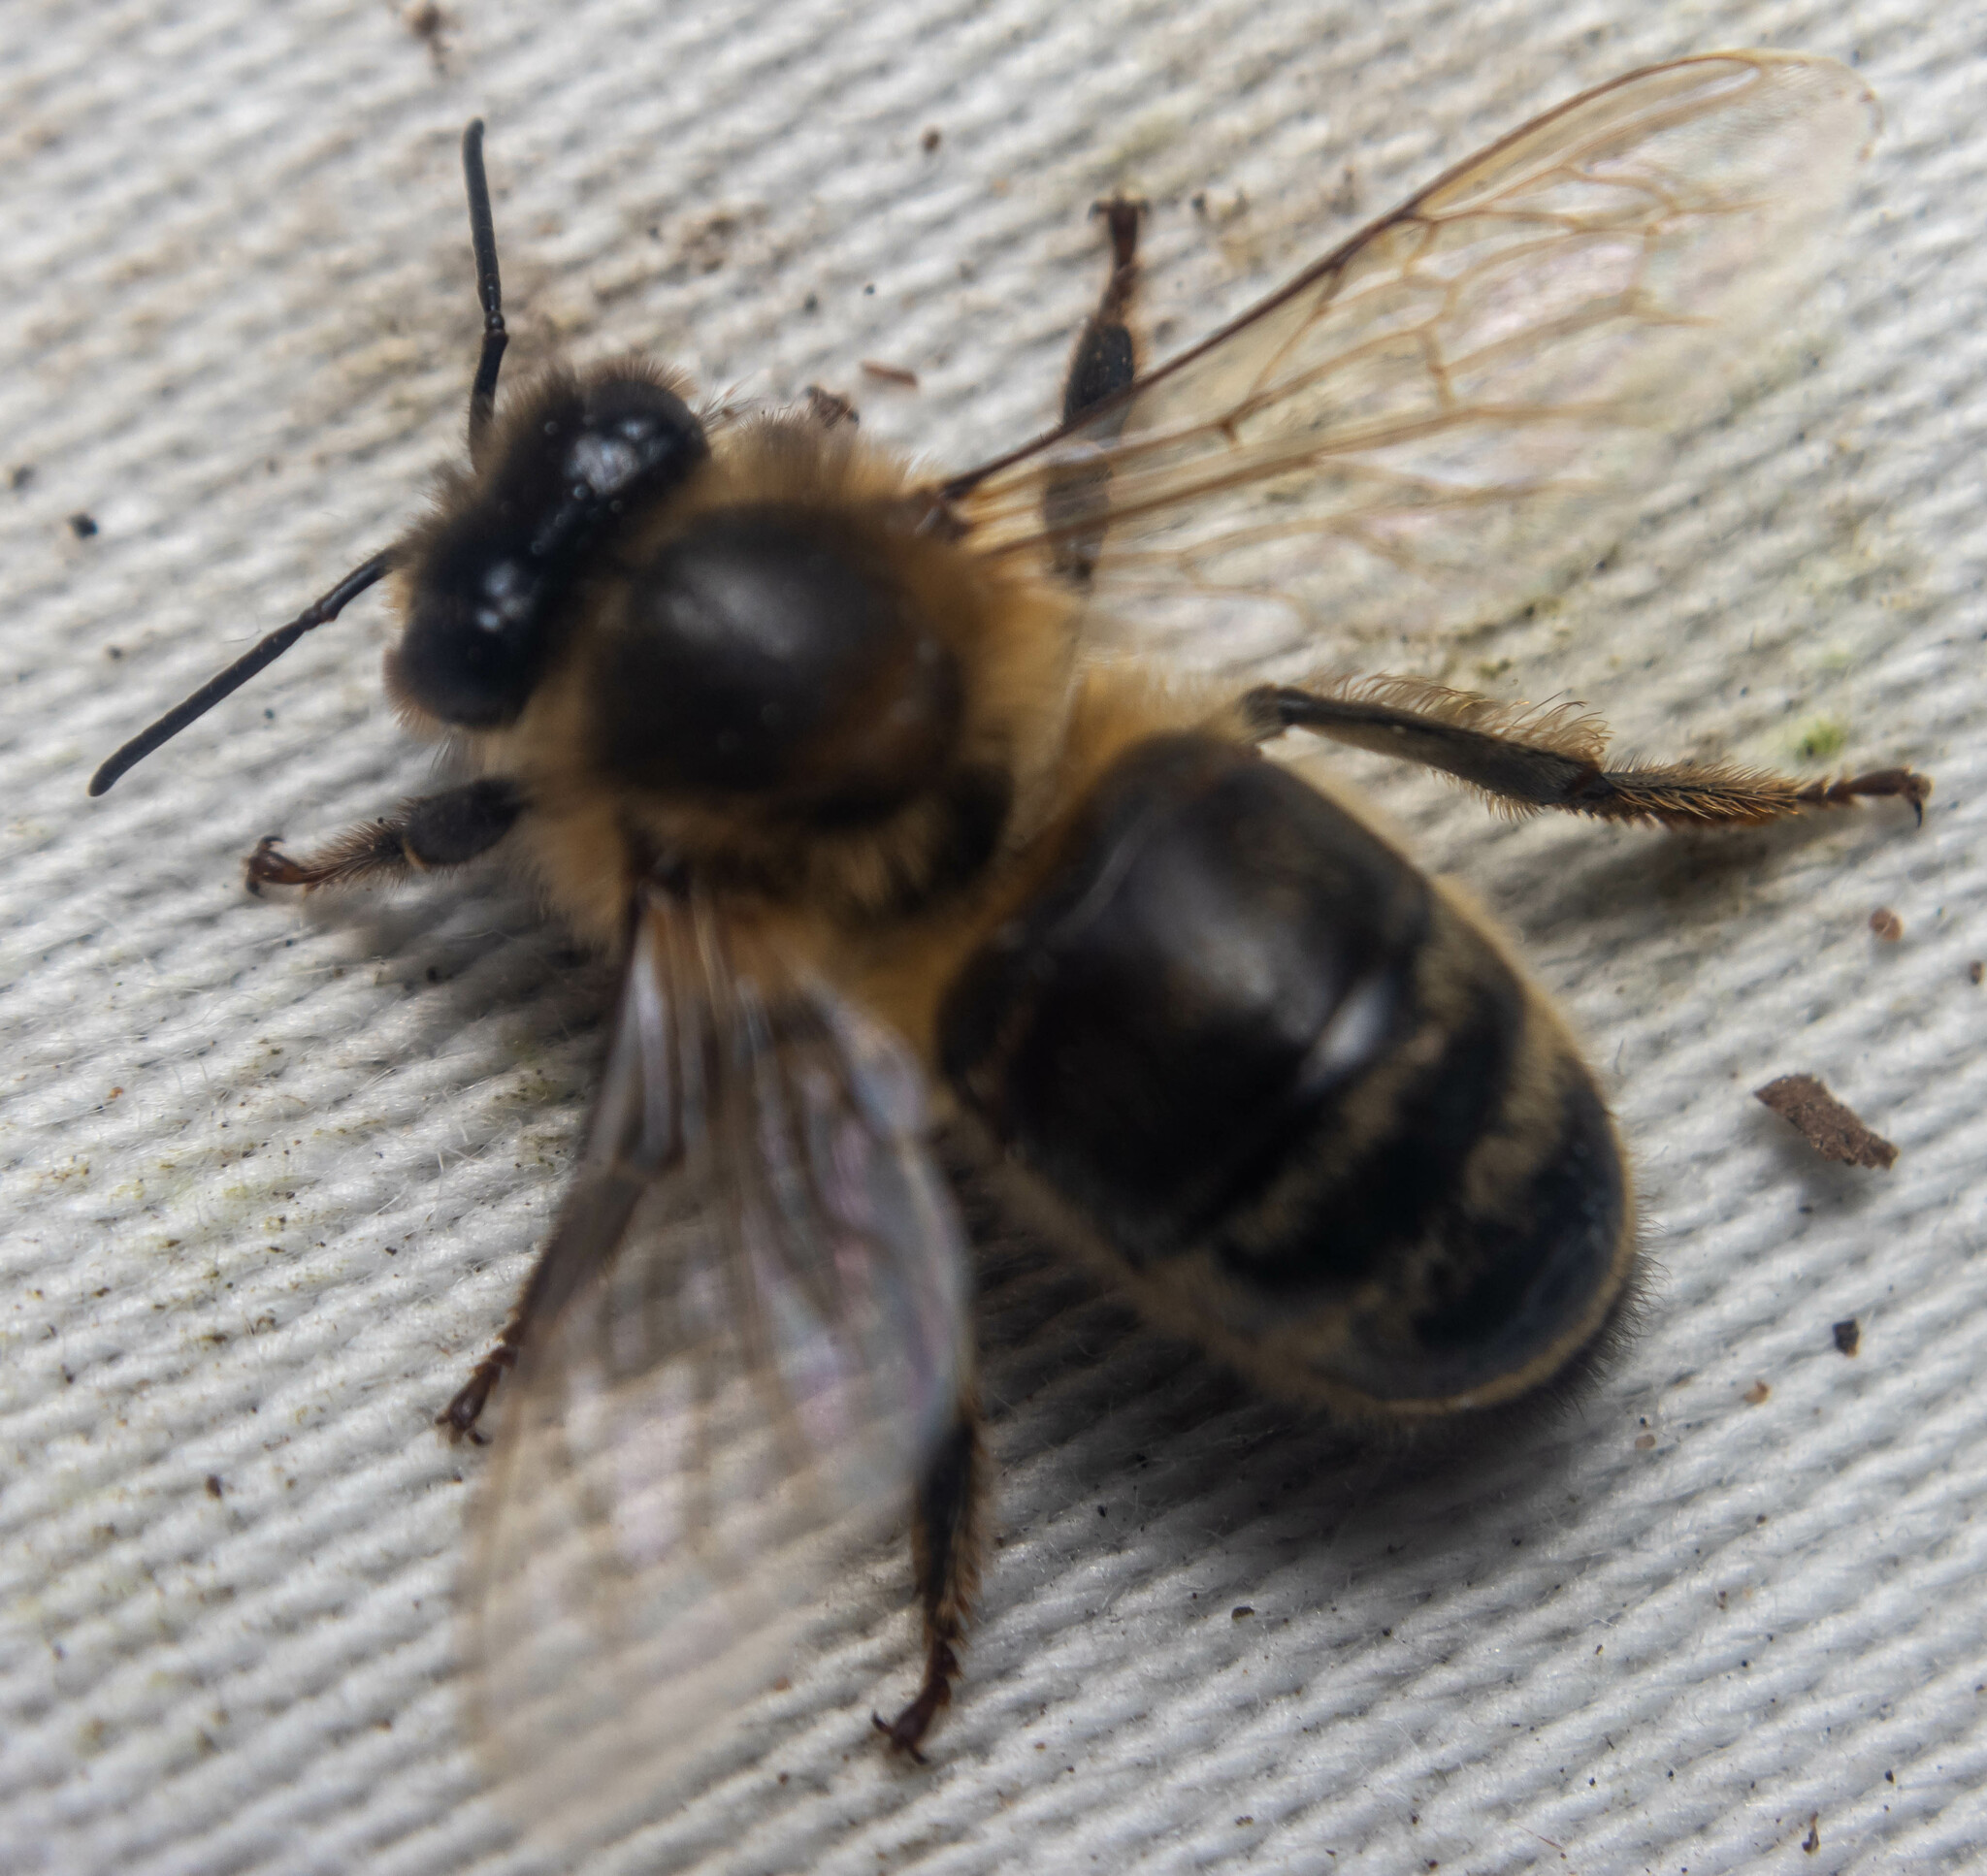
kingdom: Animalia
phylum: Arthropoda
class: Insecta
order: Hymenoptera
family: Apidae
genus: Apis
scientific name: Apis mellifera
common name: Honey bee
